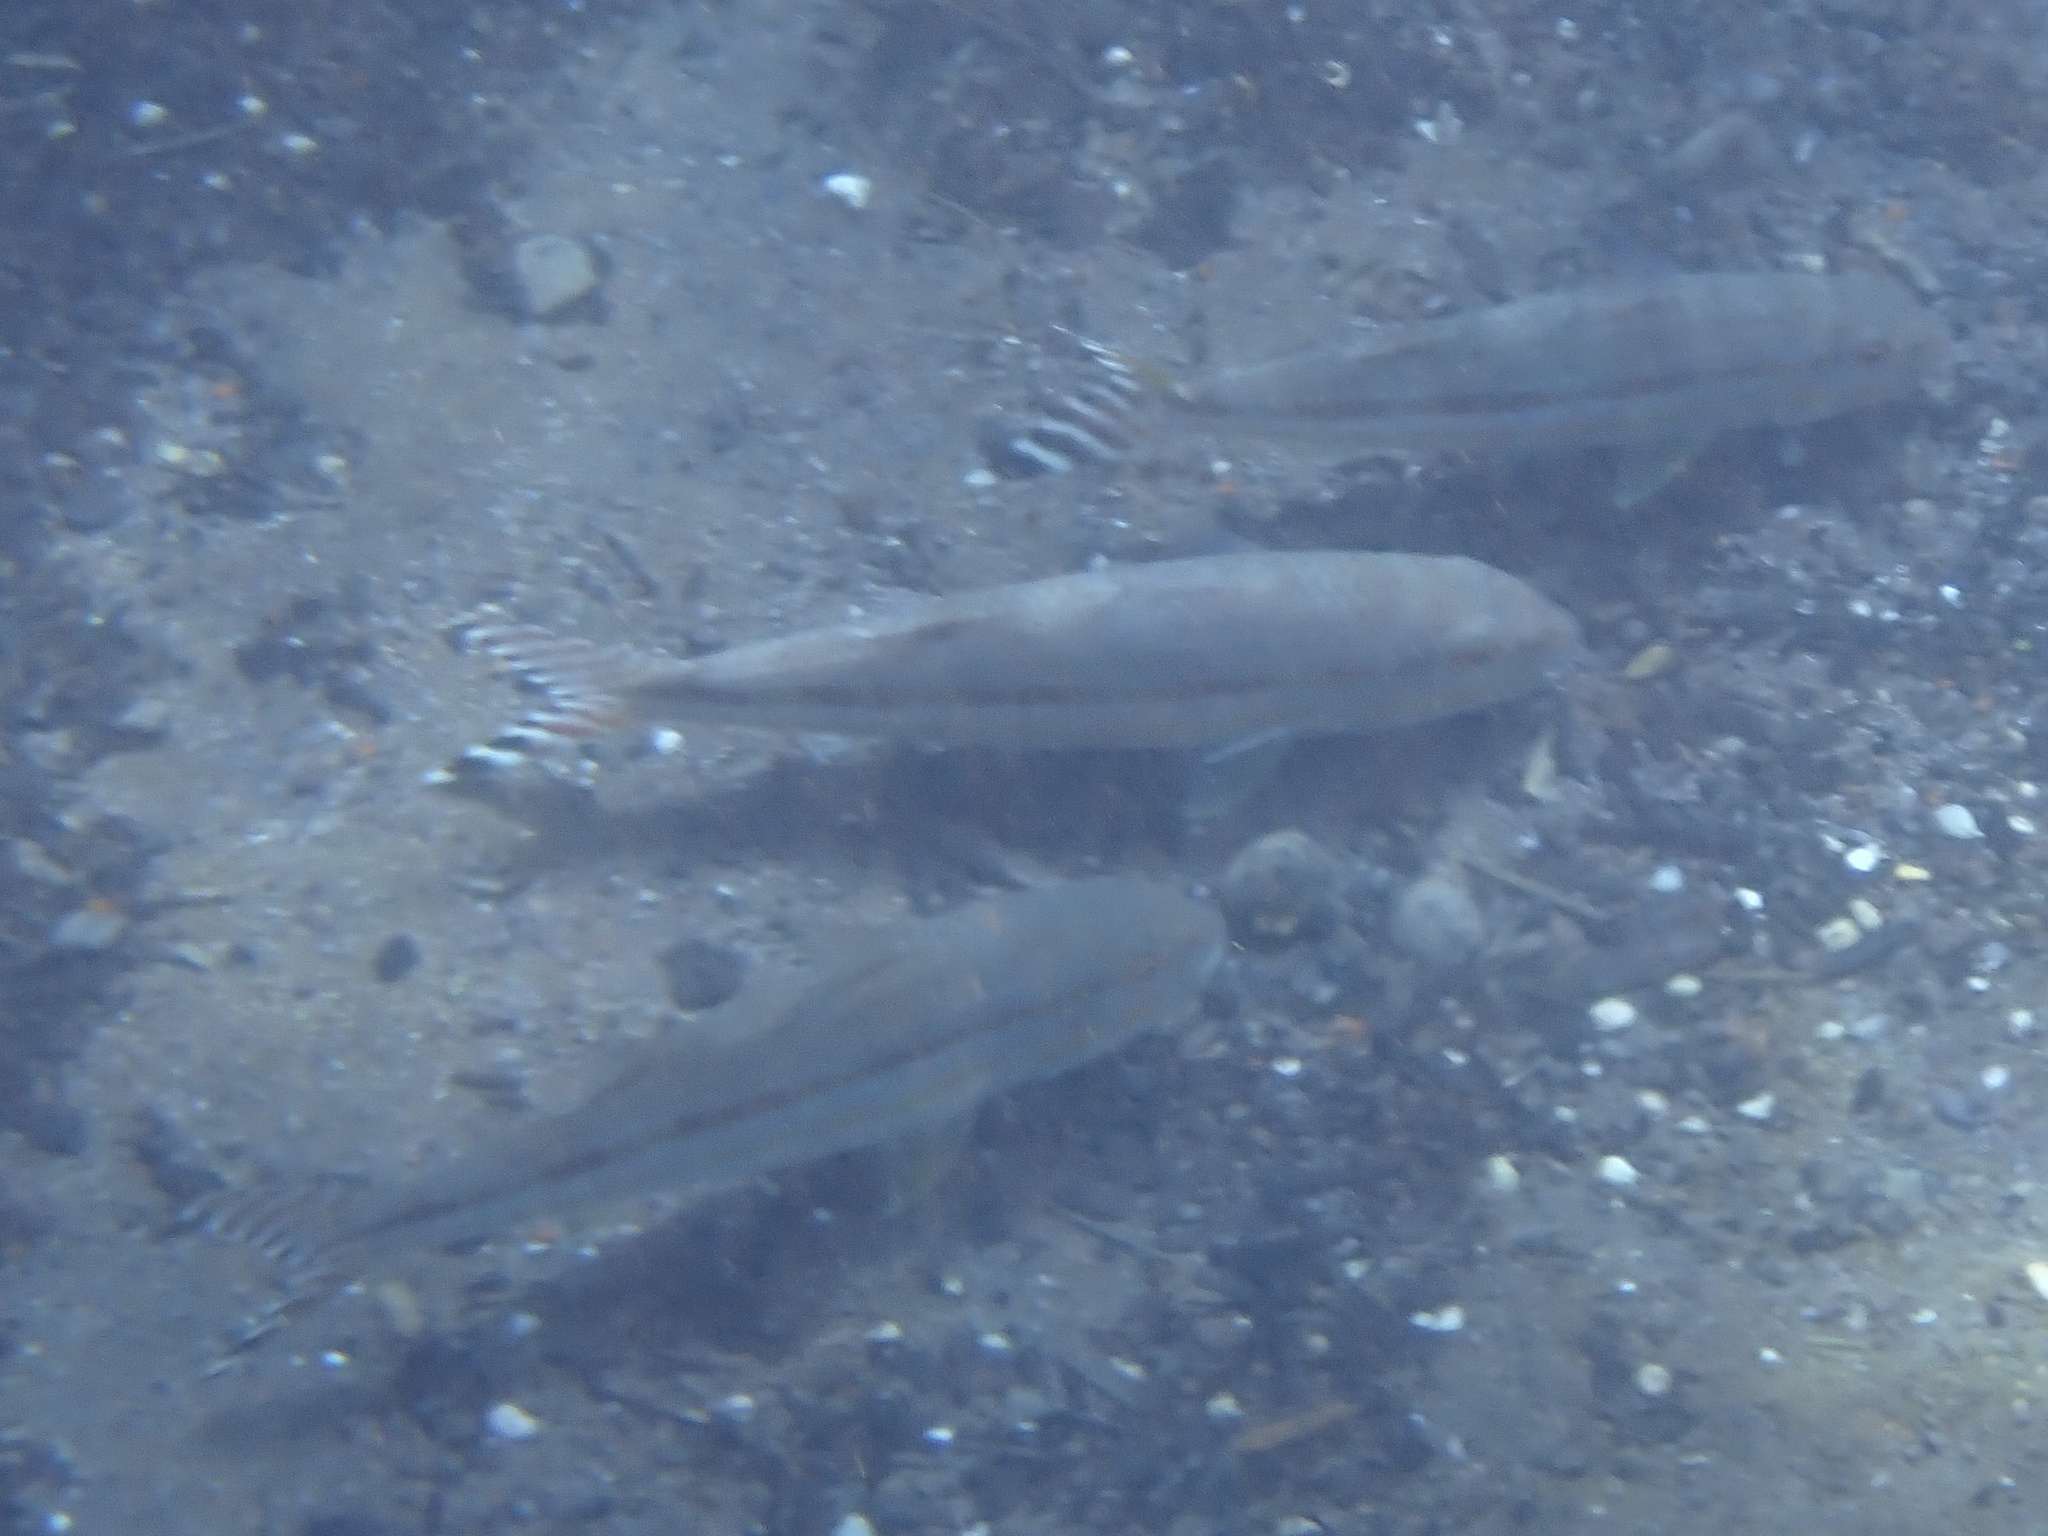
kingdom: Animalia
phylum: Chordata
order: Perciformes
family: Mullidae
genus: Upeneus
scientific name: Upeneus taeniopterus
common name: Band-tail goatfish
